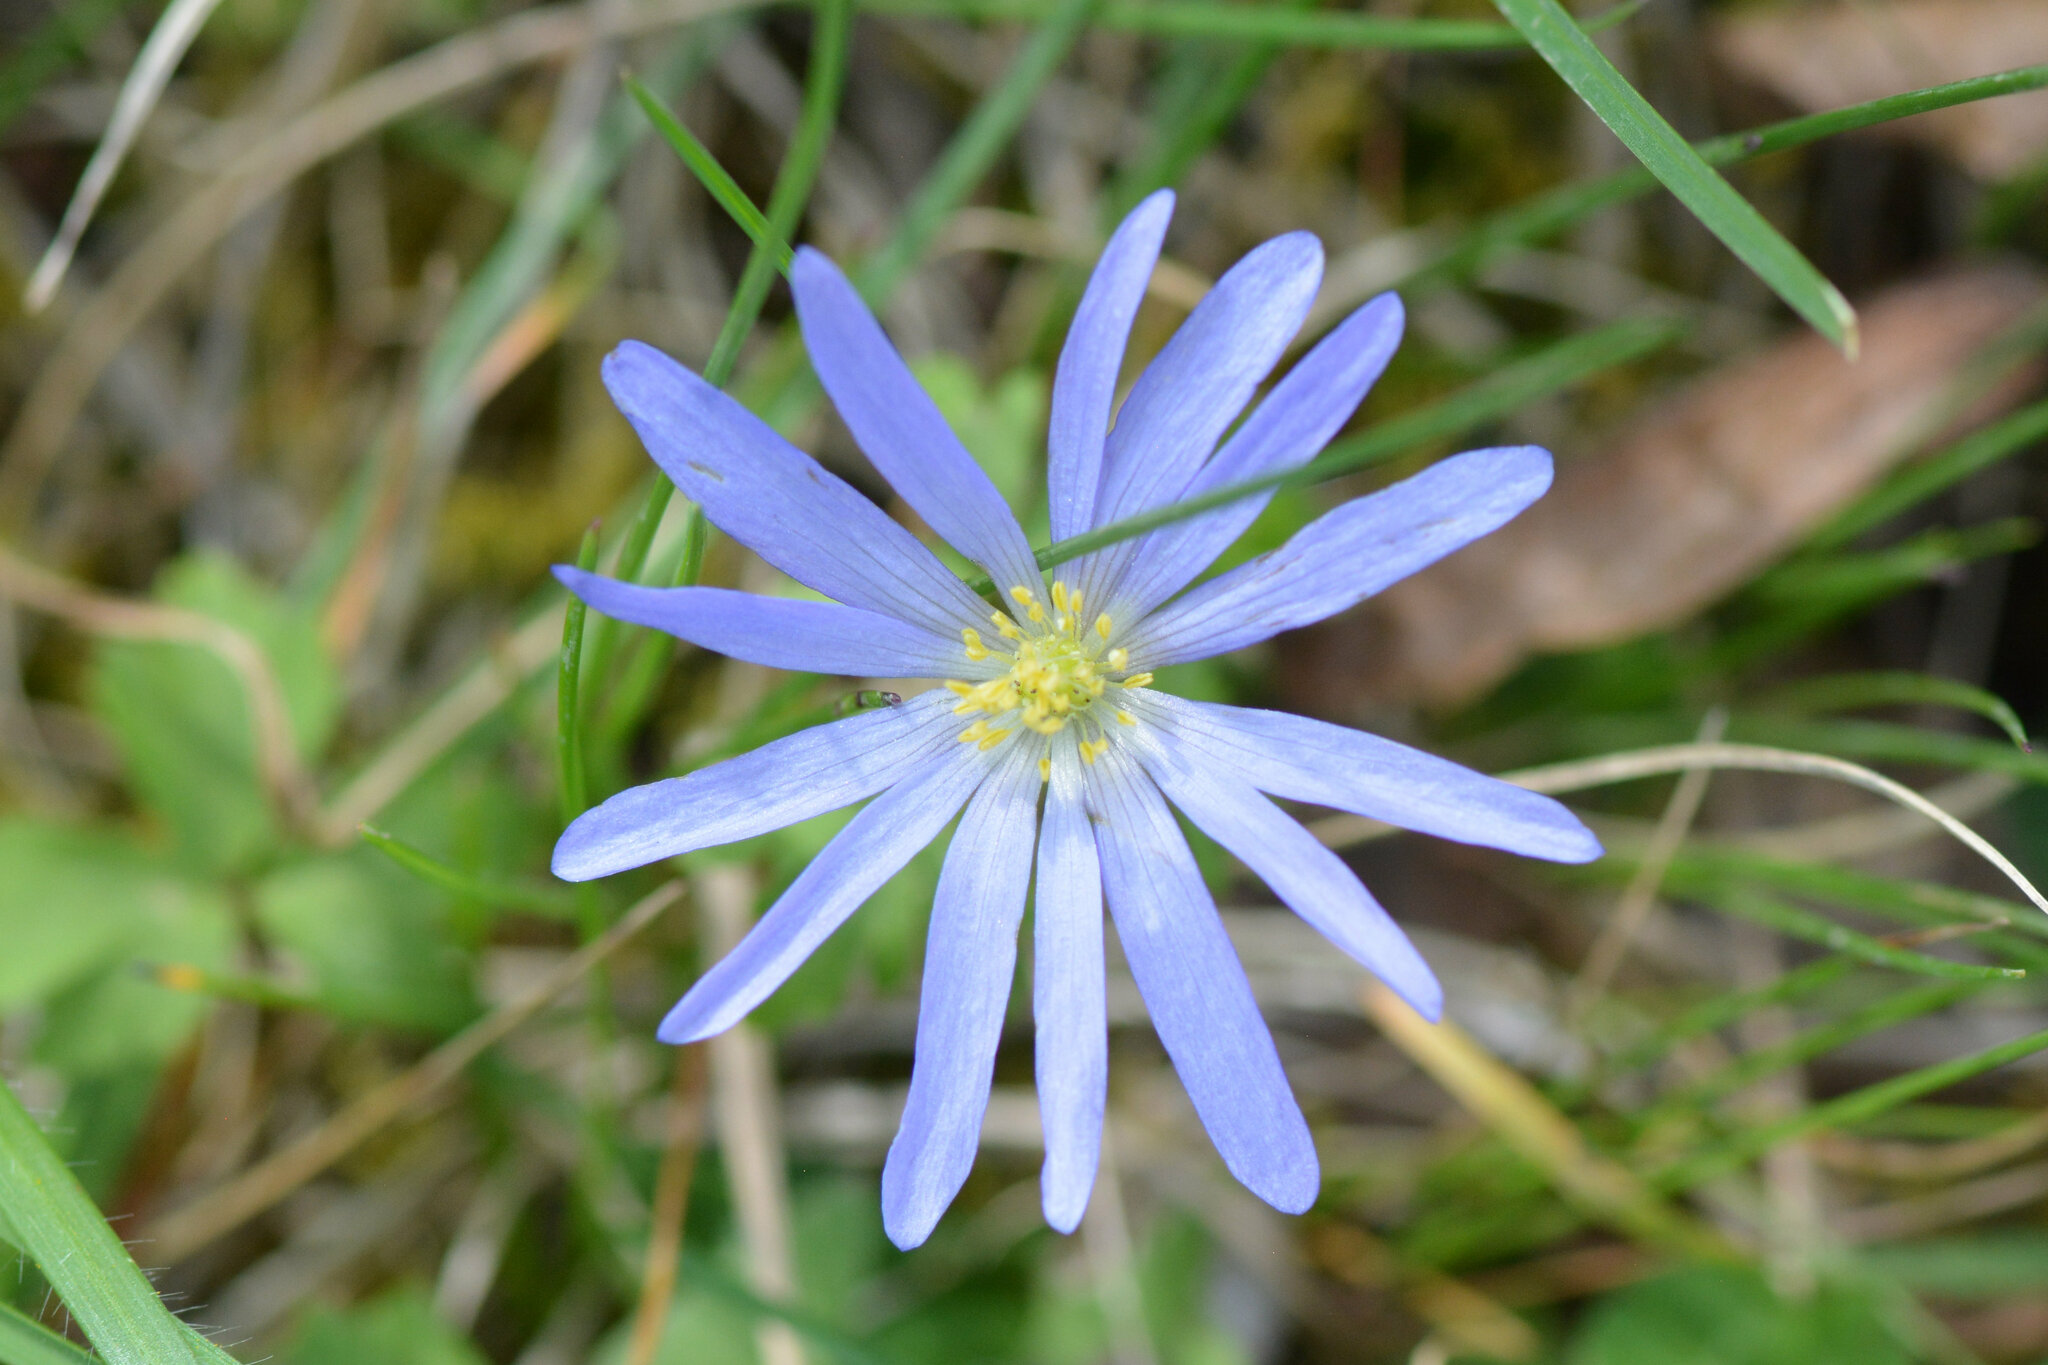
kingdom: Plantae
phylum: Tracheophyta
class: Magnoliopsida
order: Ranunculales
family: Ranunculaceae
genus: Anemone
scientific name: Anemone blanda
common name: Balkan anemone
